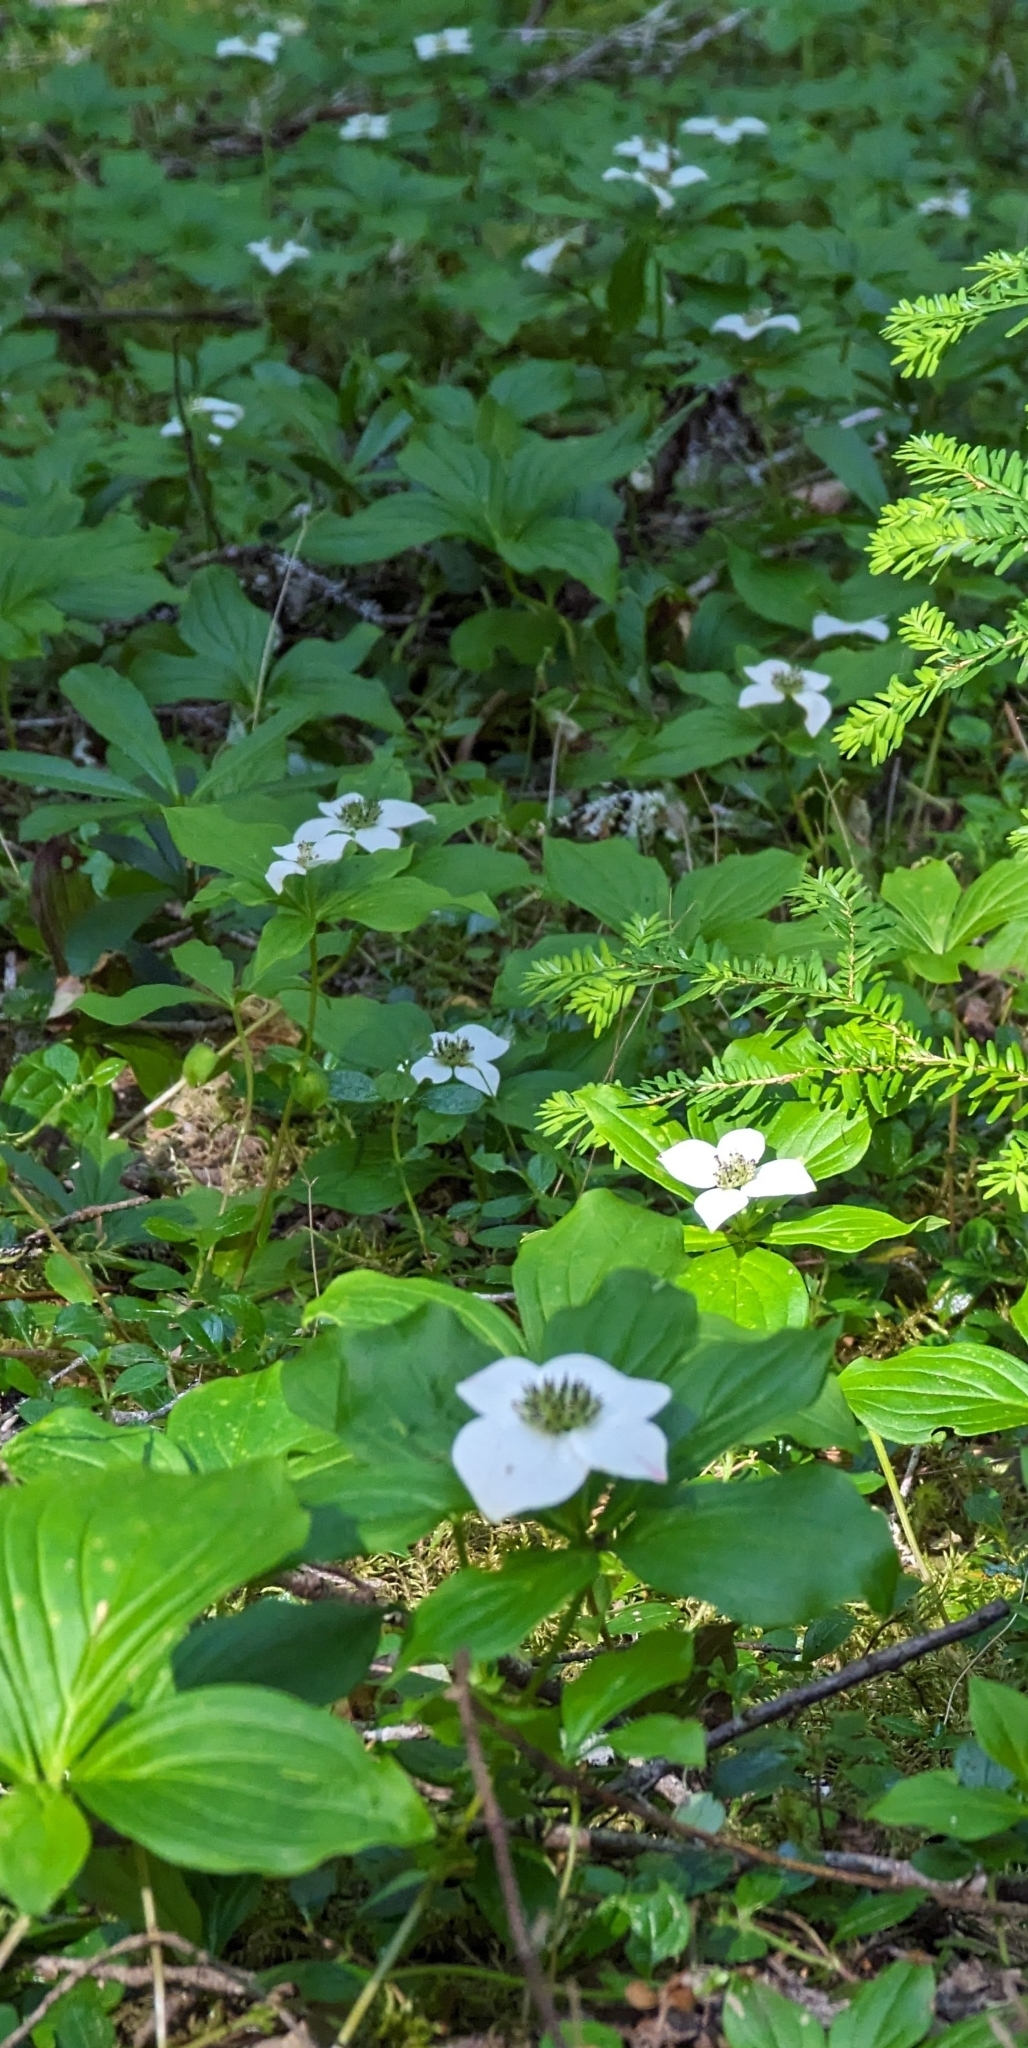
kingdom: Plantae
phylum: Tracheophyta
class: Magnoliopsida
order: Cornales
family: Cornaceae
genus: Cornus
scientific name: Cornus unalaschkensis
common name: Alaska bunchberry
